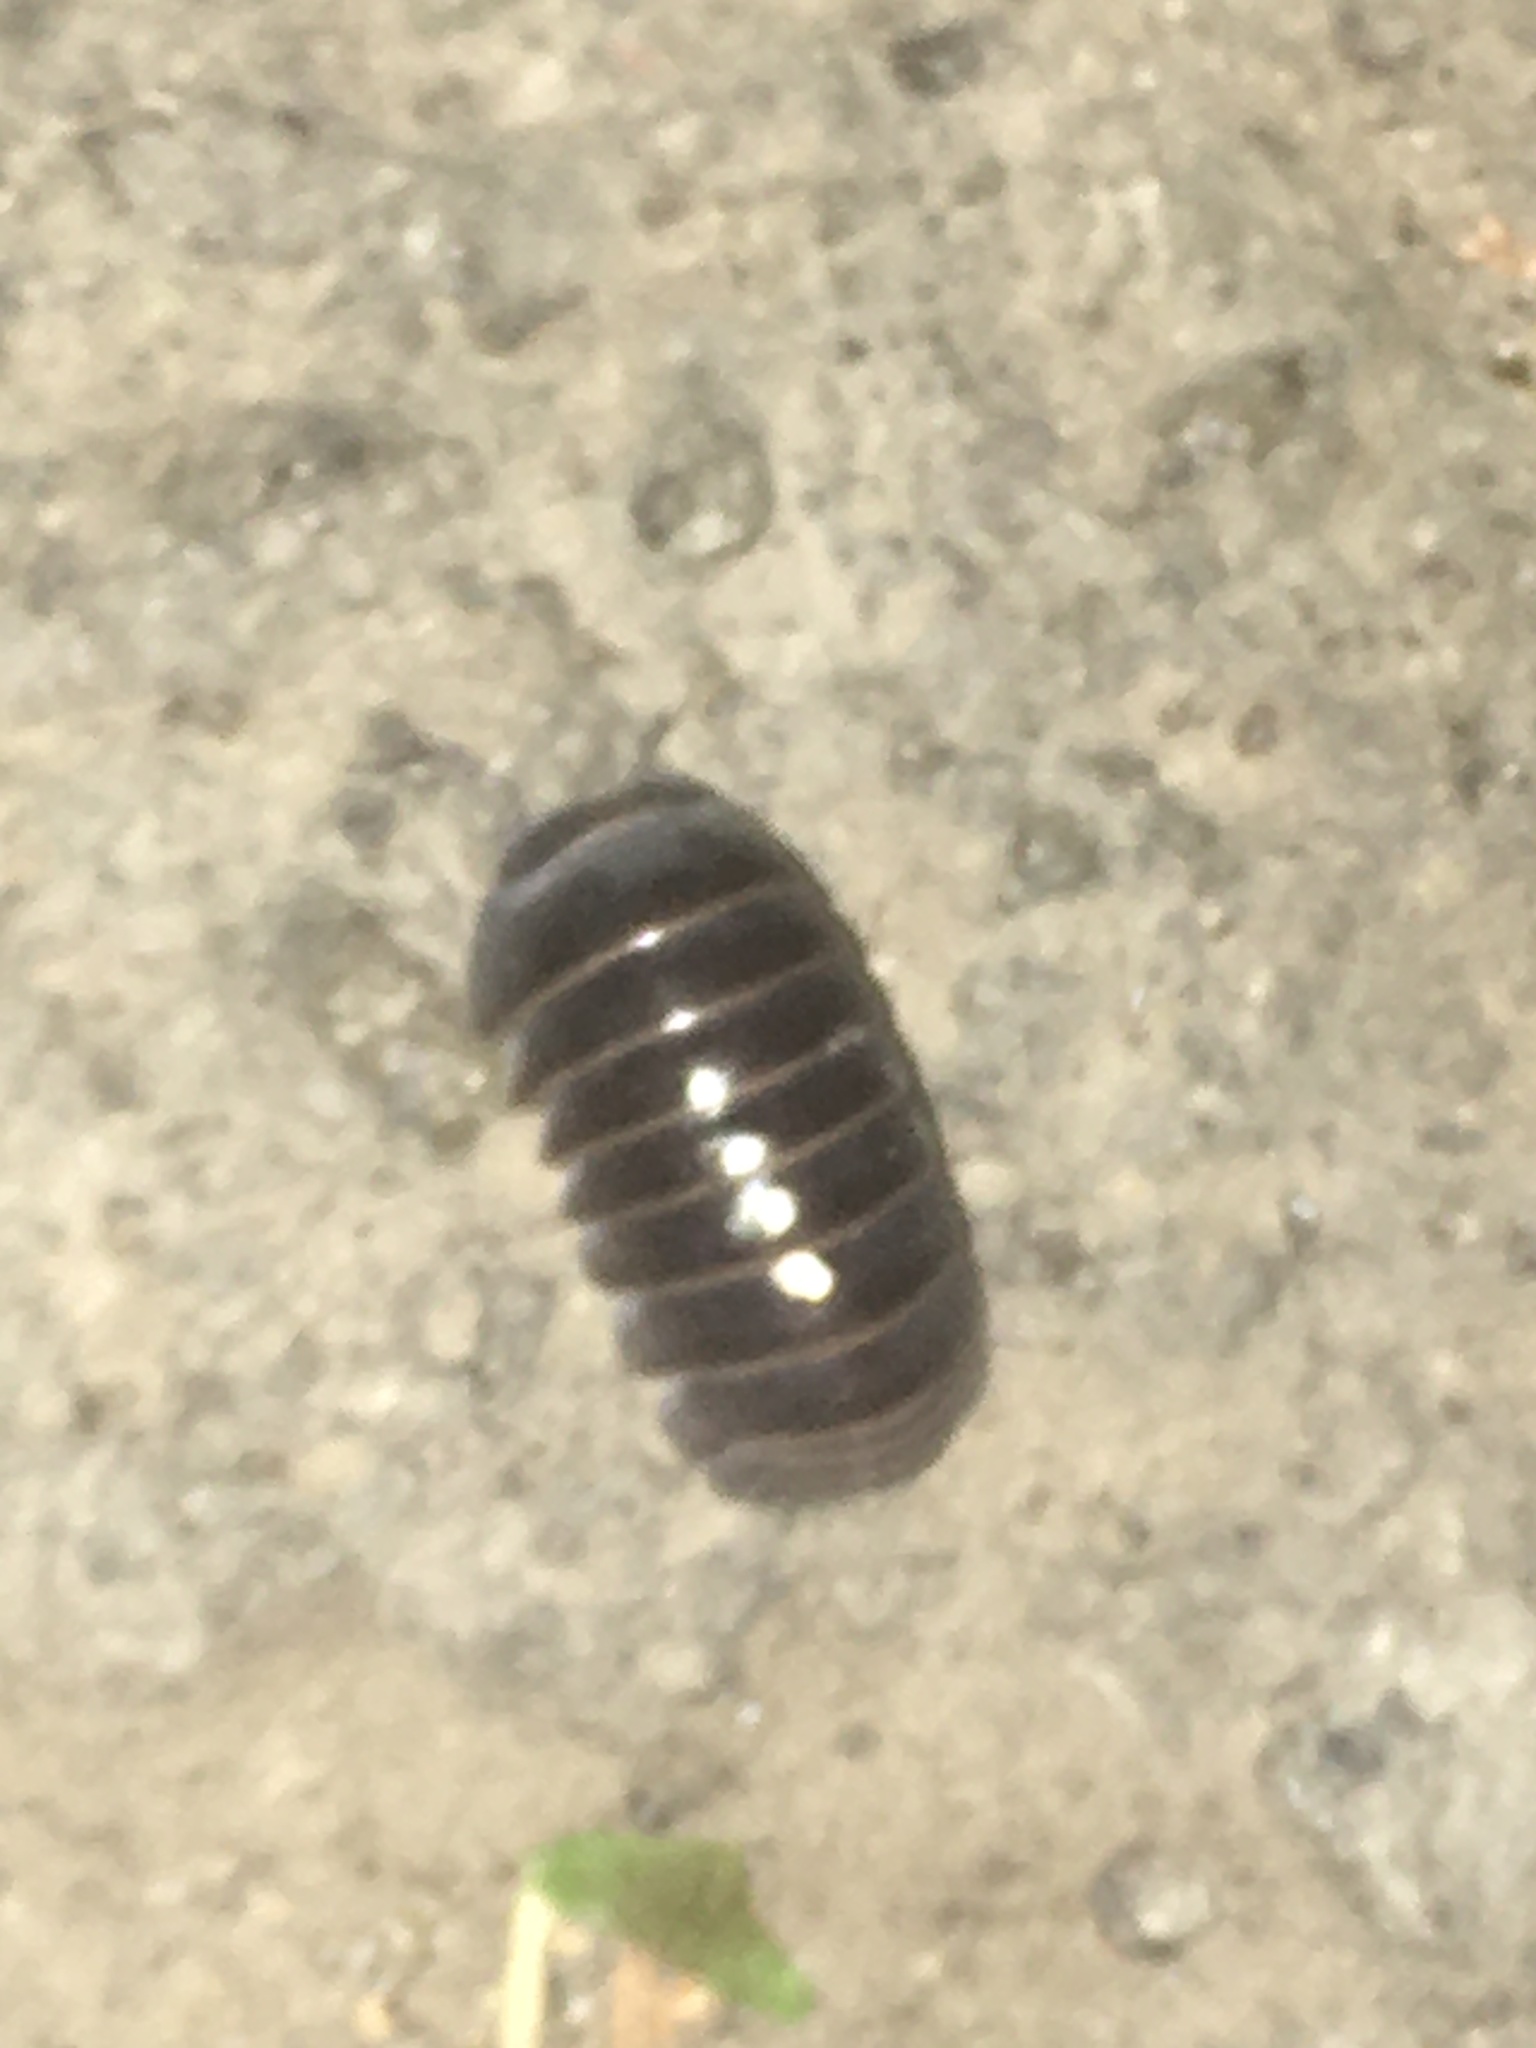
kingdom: Animalia
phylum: Arthropoda
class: Malacostraca
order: Isopoda
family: Armadillidae
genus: Armadillo
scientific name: Armadillo officinalis
